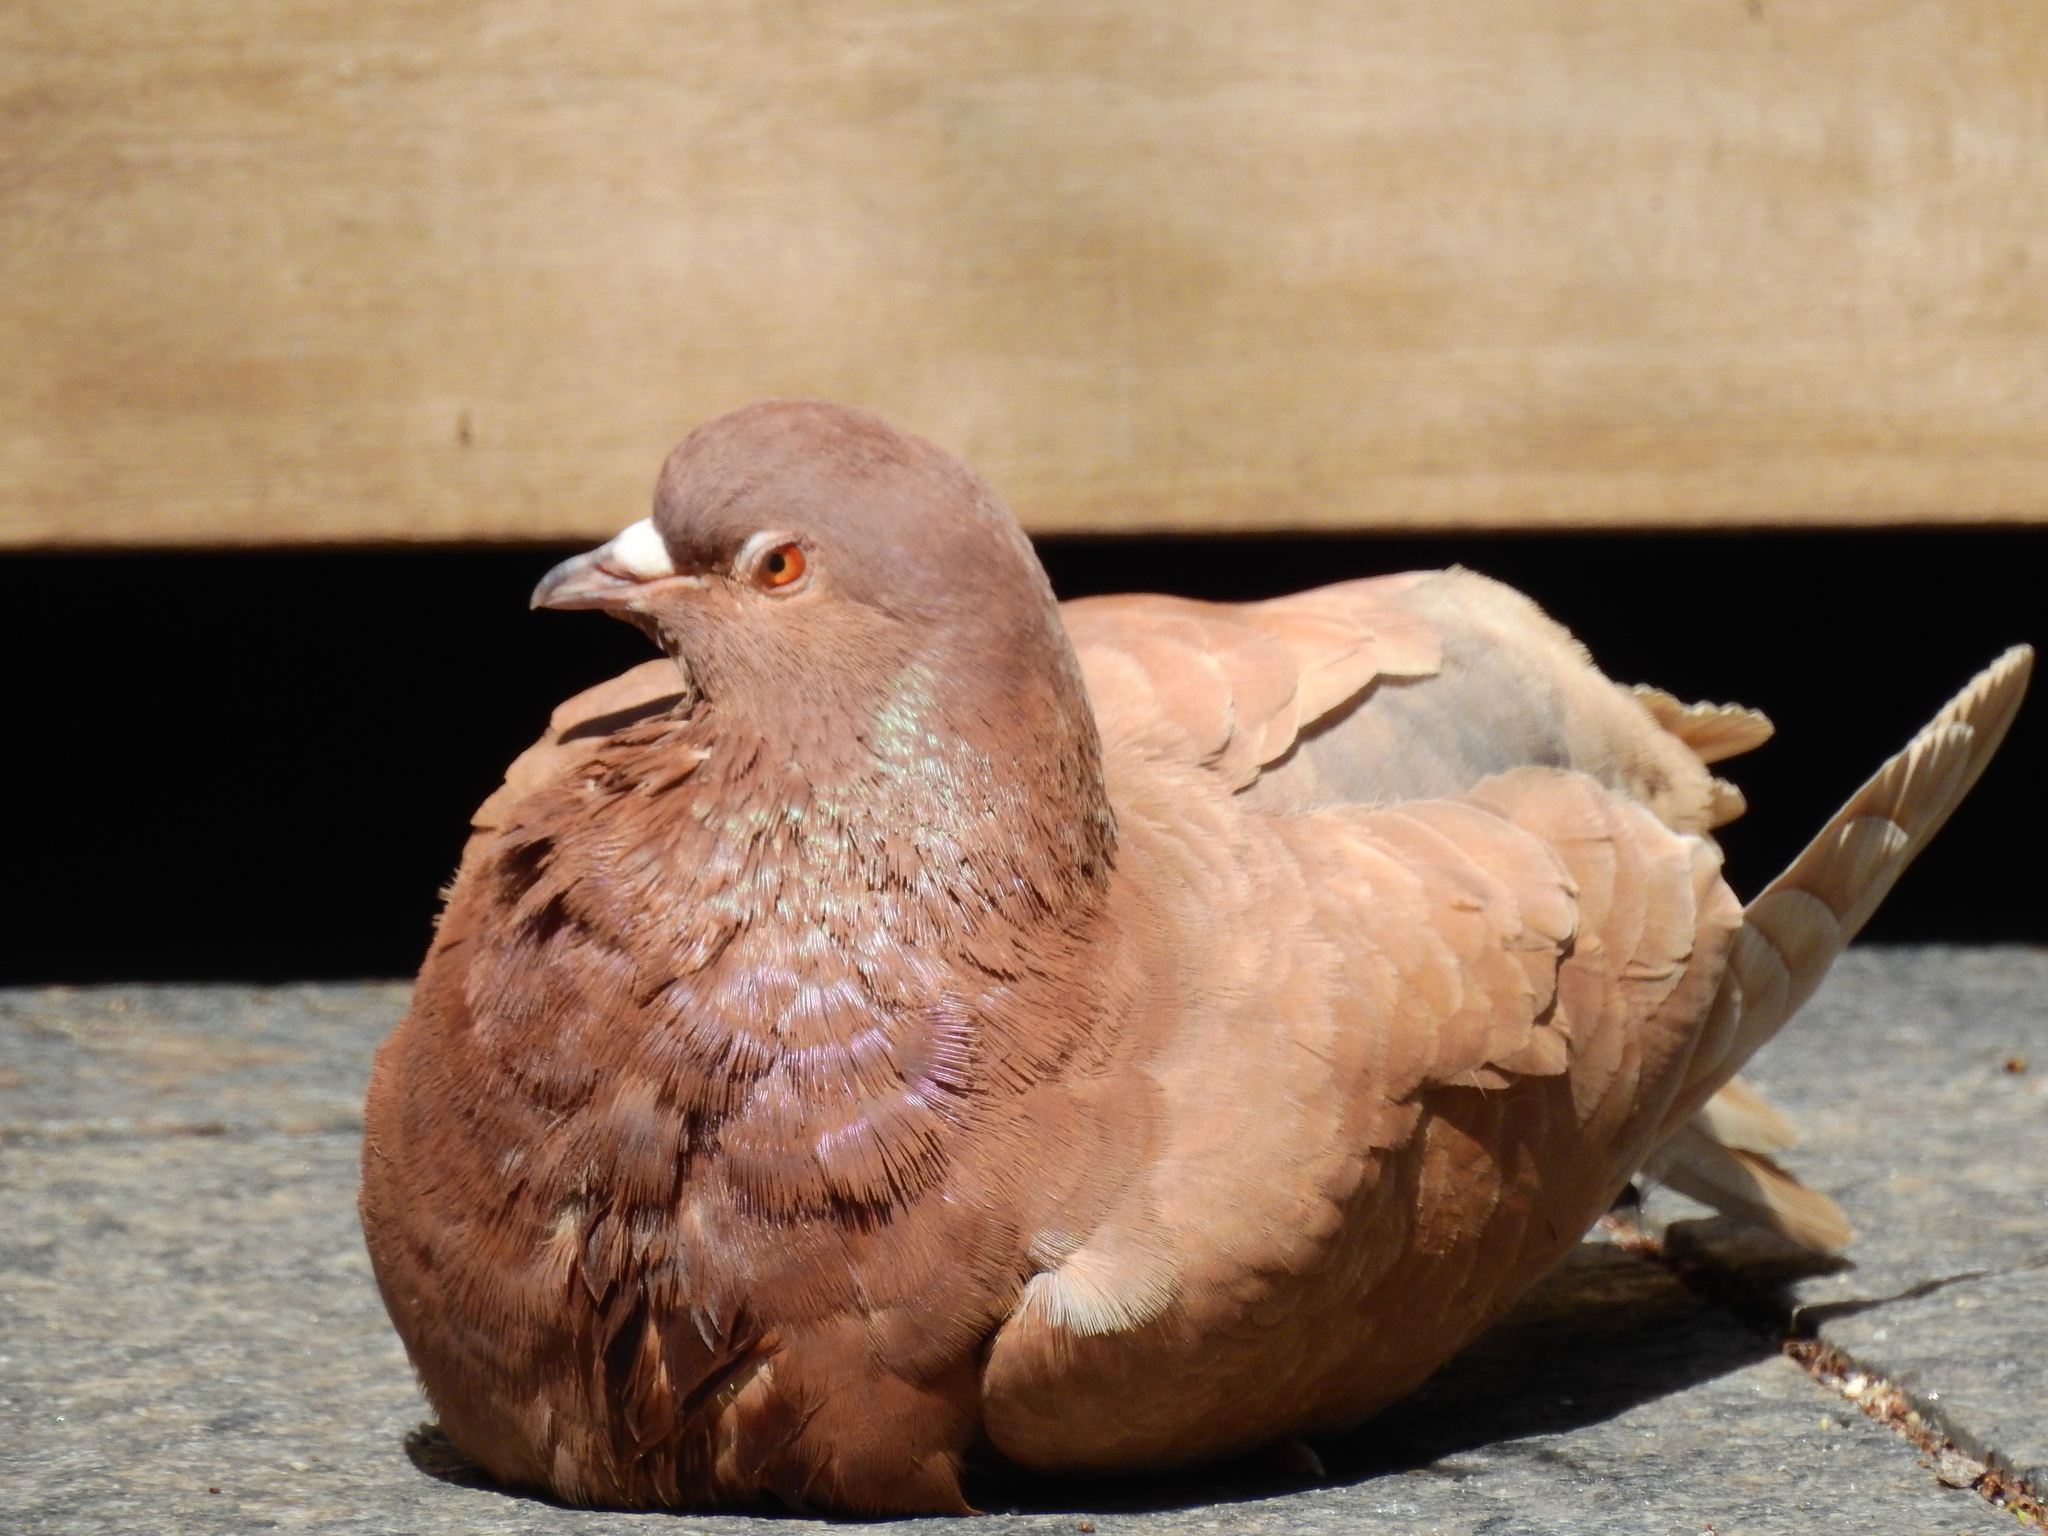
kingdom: Animalia
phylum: Chordata
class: Aves
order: Columbiformes
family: Columbidae
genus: Columba
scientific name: Columba livia
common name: Rock pigeon
